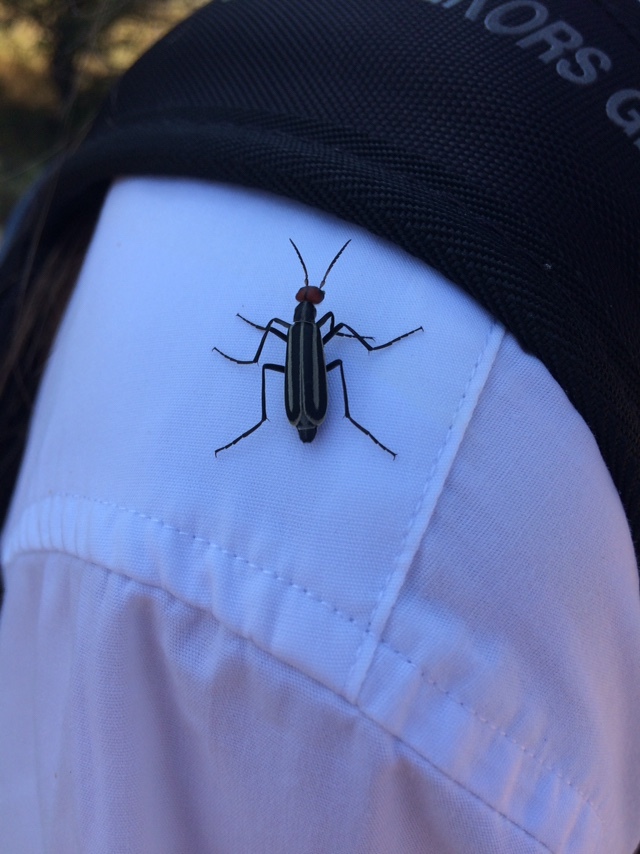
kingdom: Animalia
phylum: Arthropoda
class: Insecta
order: Coleoptera
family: Meloidae
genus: Epicauta
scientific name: Epicauta erythrocephala
